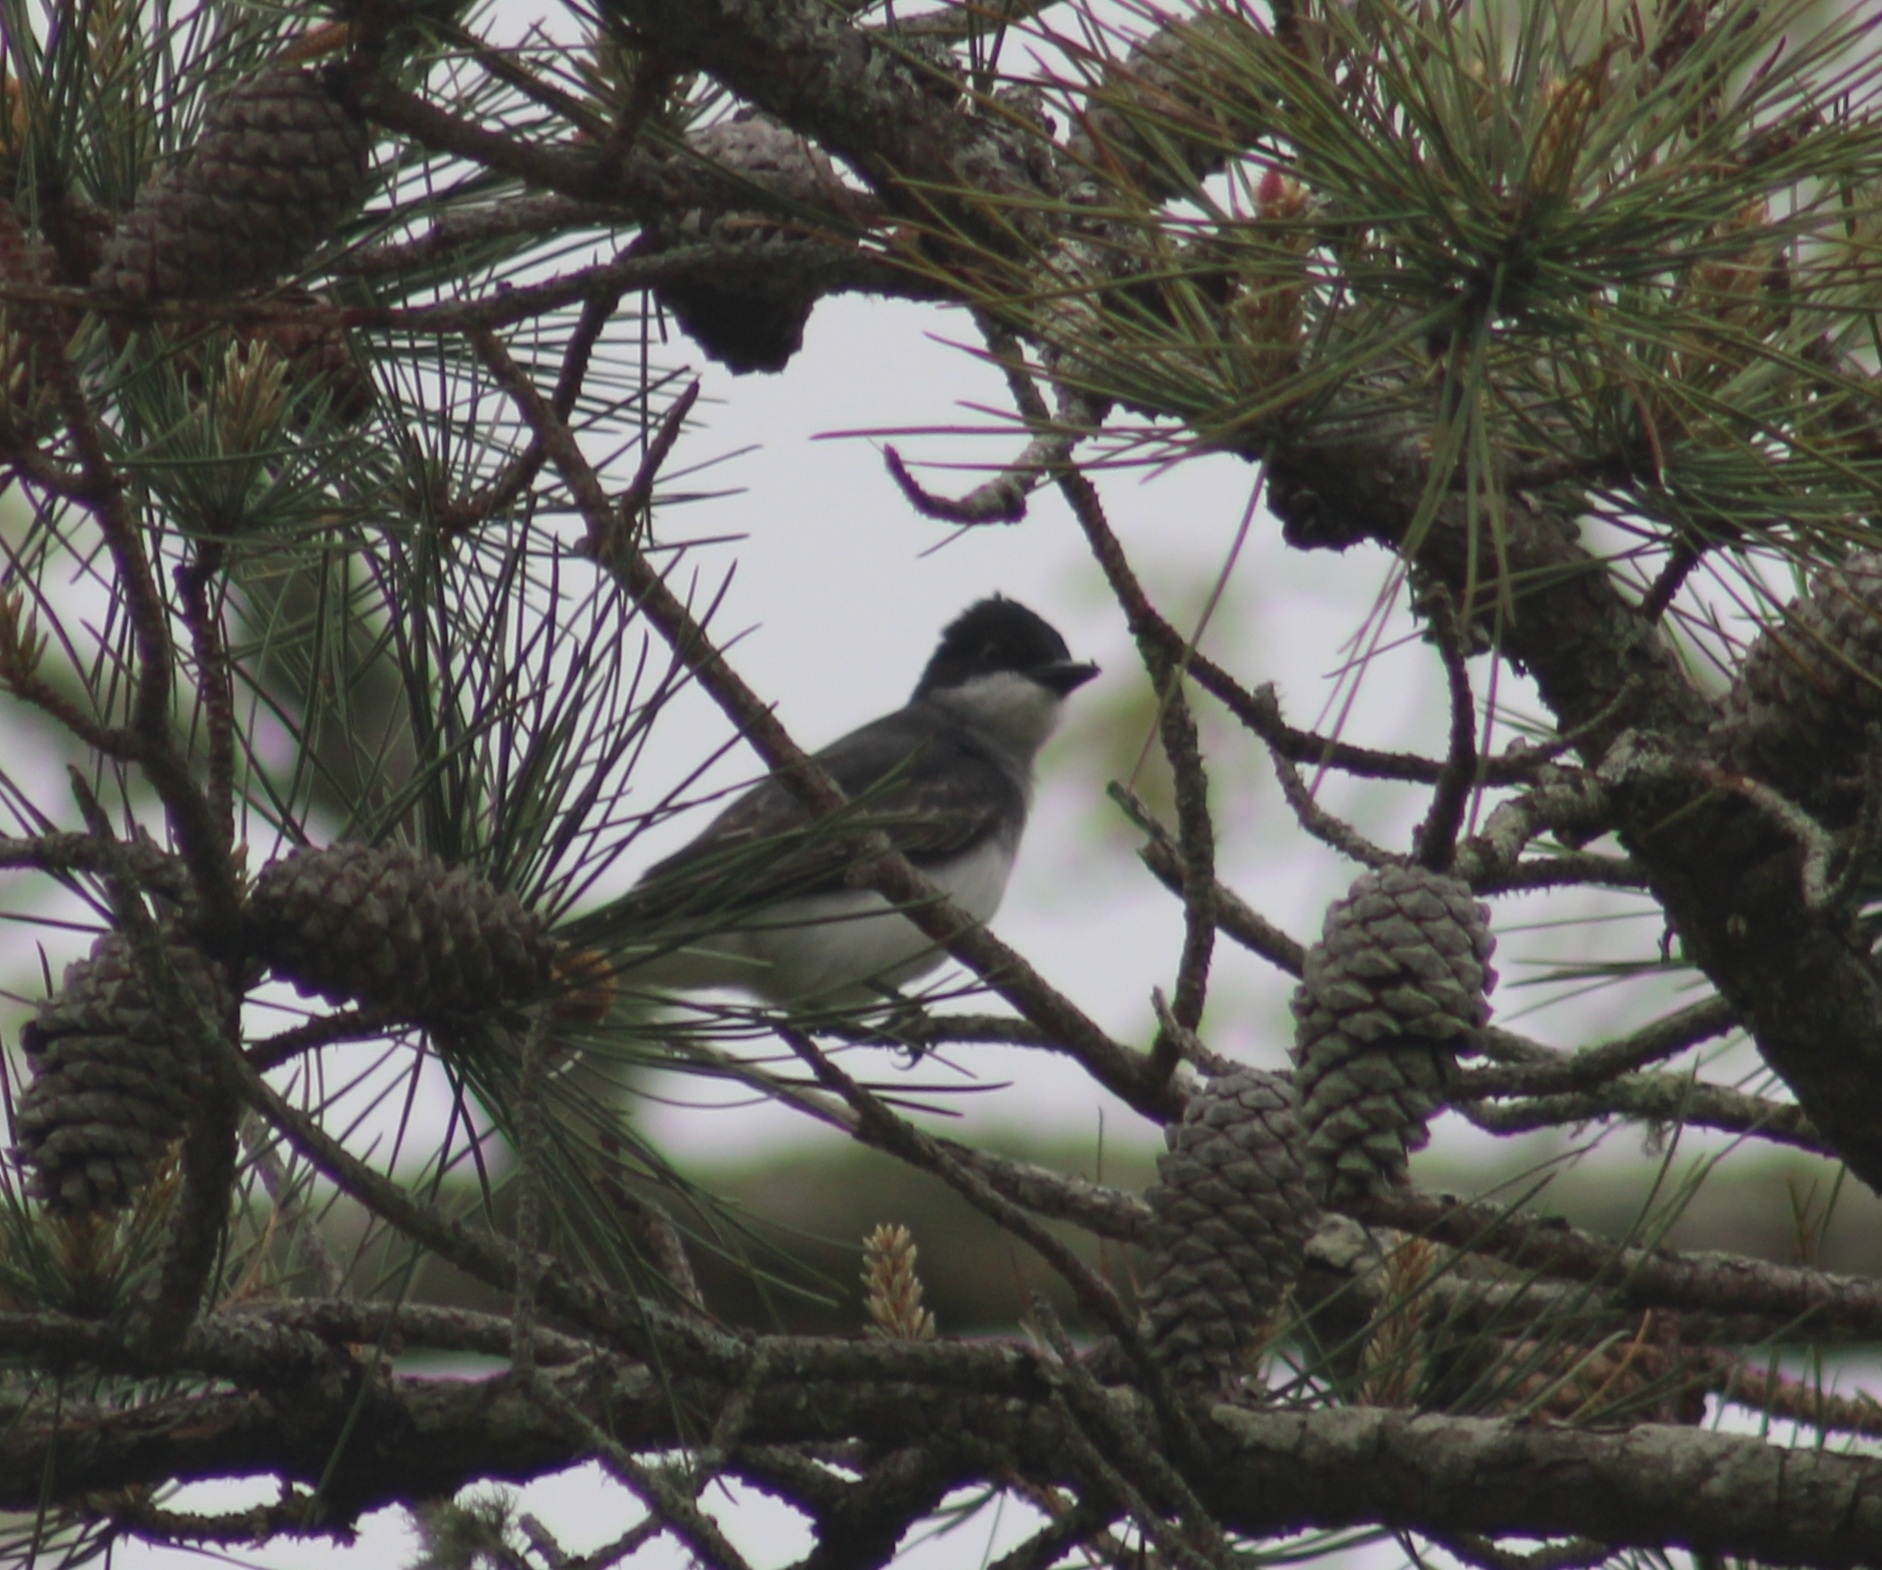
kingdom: Animalia
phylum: Chordata
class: Aves
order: Passeriformes
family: Tyrannidae
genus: Tyrannus
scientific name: Tyrannus tyrannus
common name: Eastern kingbird
